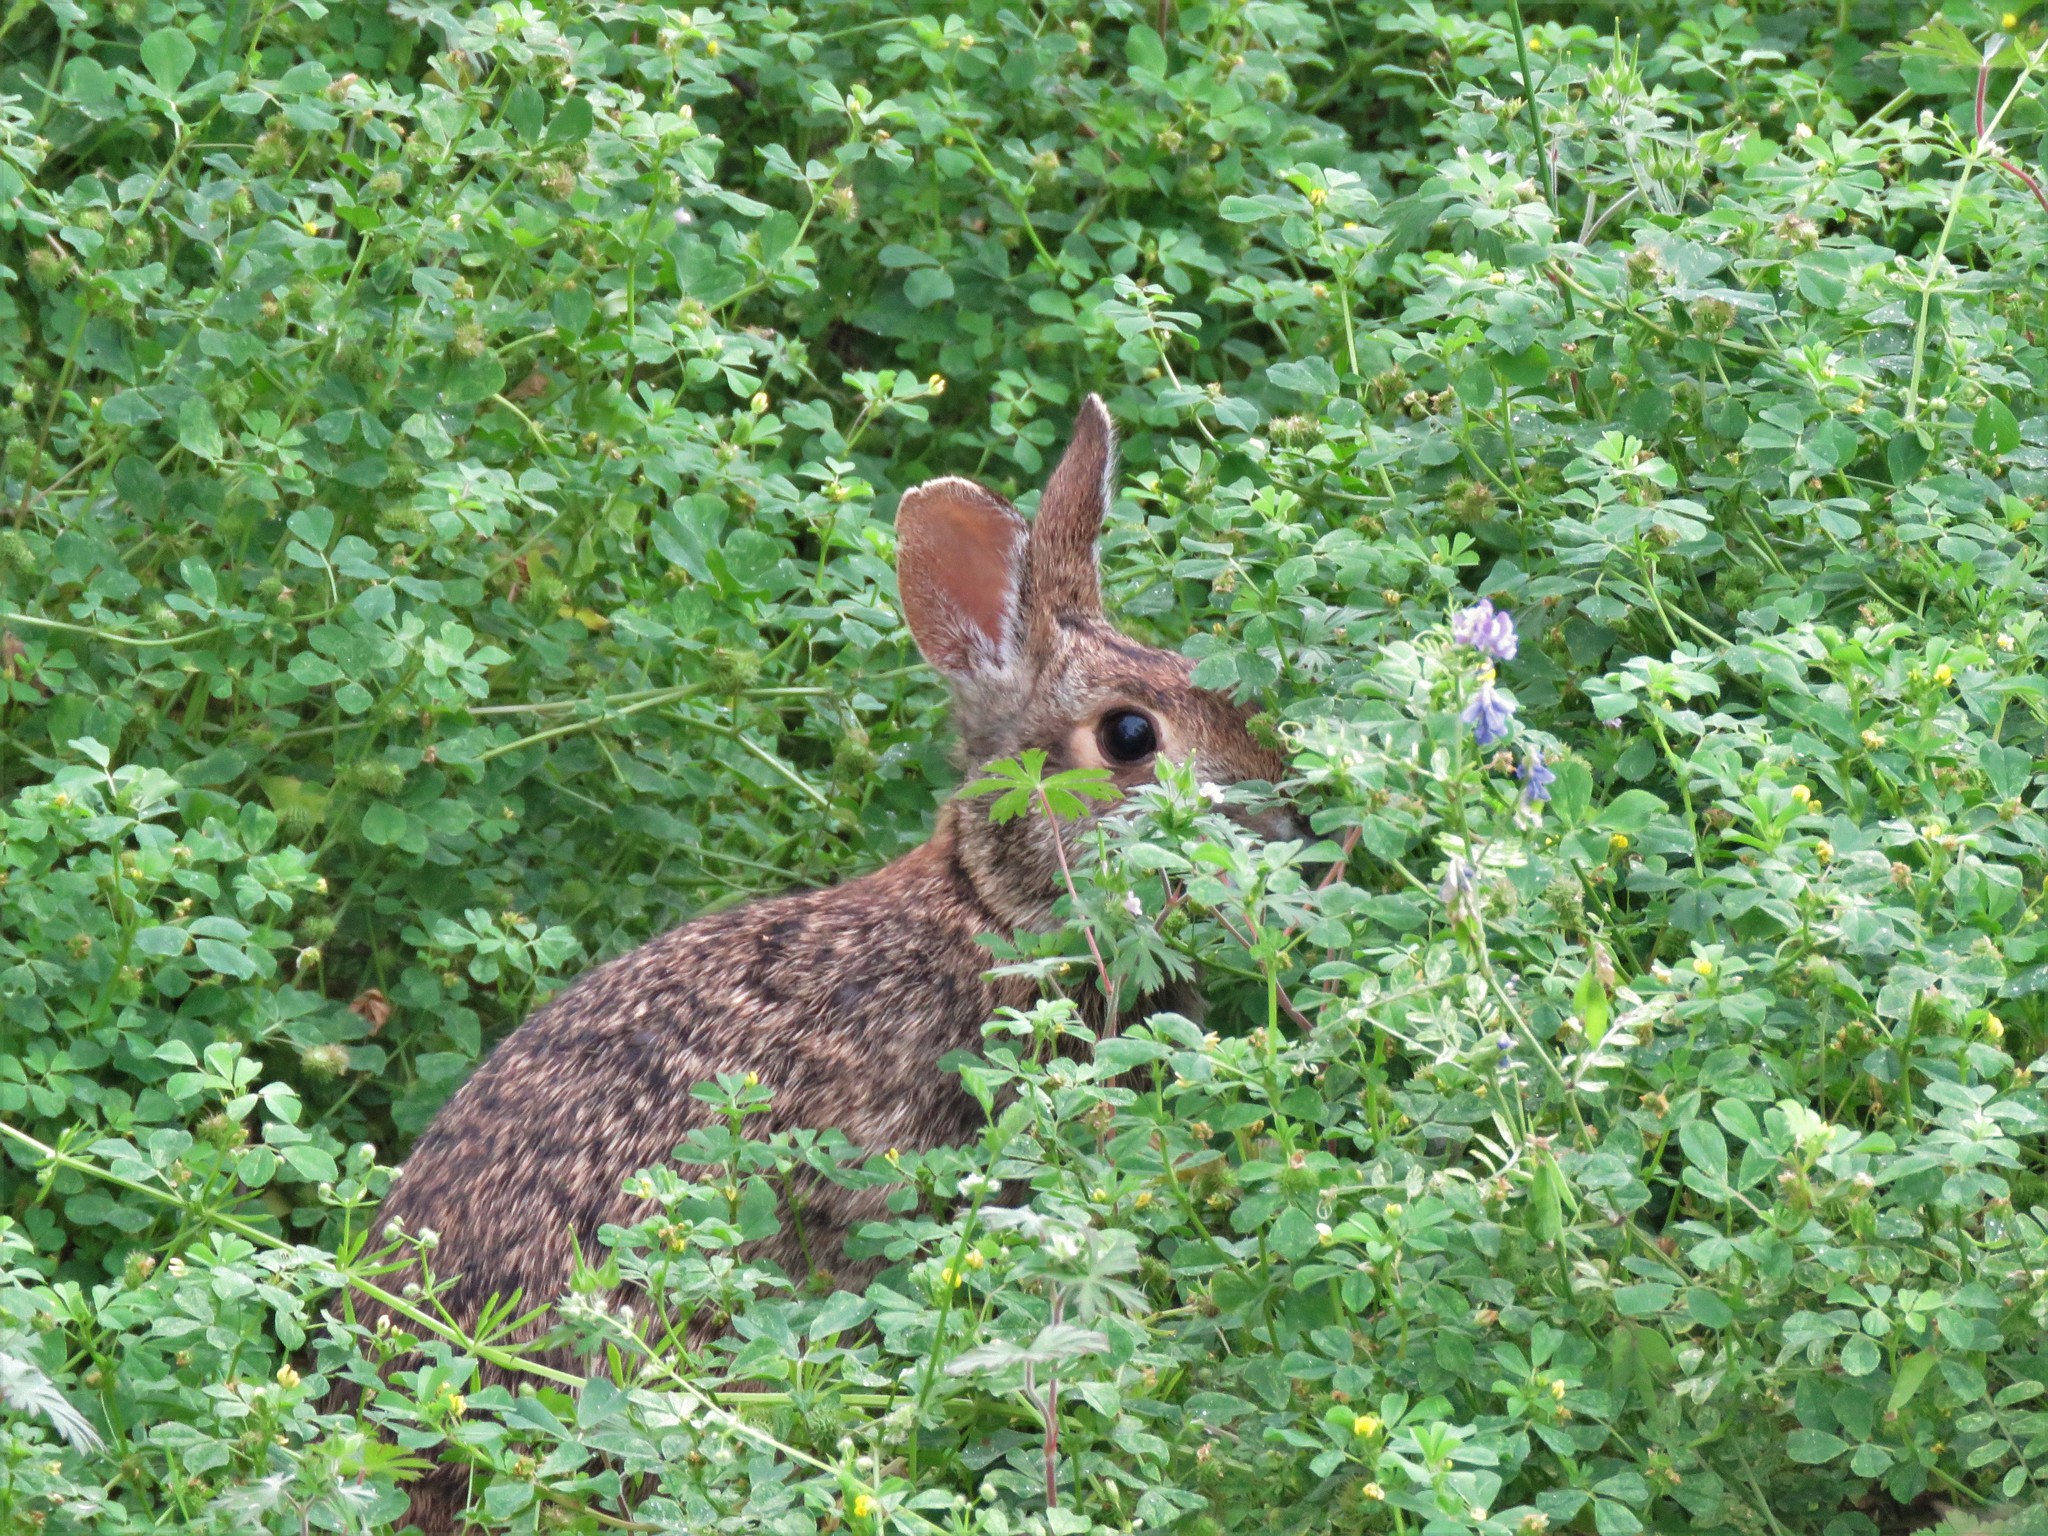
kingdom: Animalia
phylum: Chordata
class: Mammalia
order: Lagomorpha
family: Leporidae
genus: Sylvilagus
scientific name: Sylvilagus floridanus
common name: Eastern cottontail
